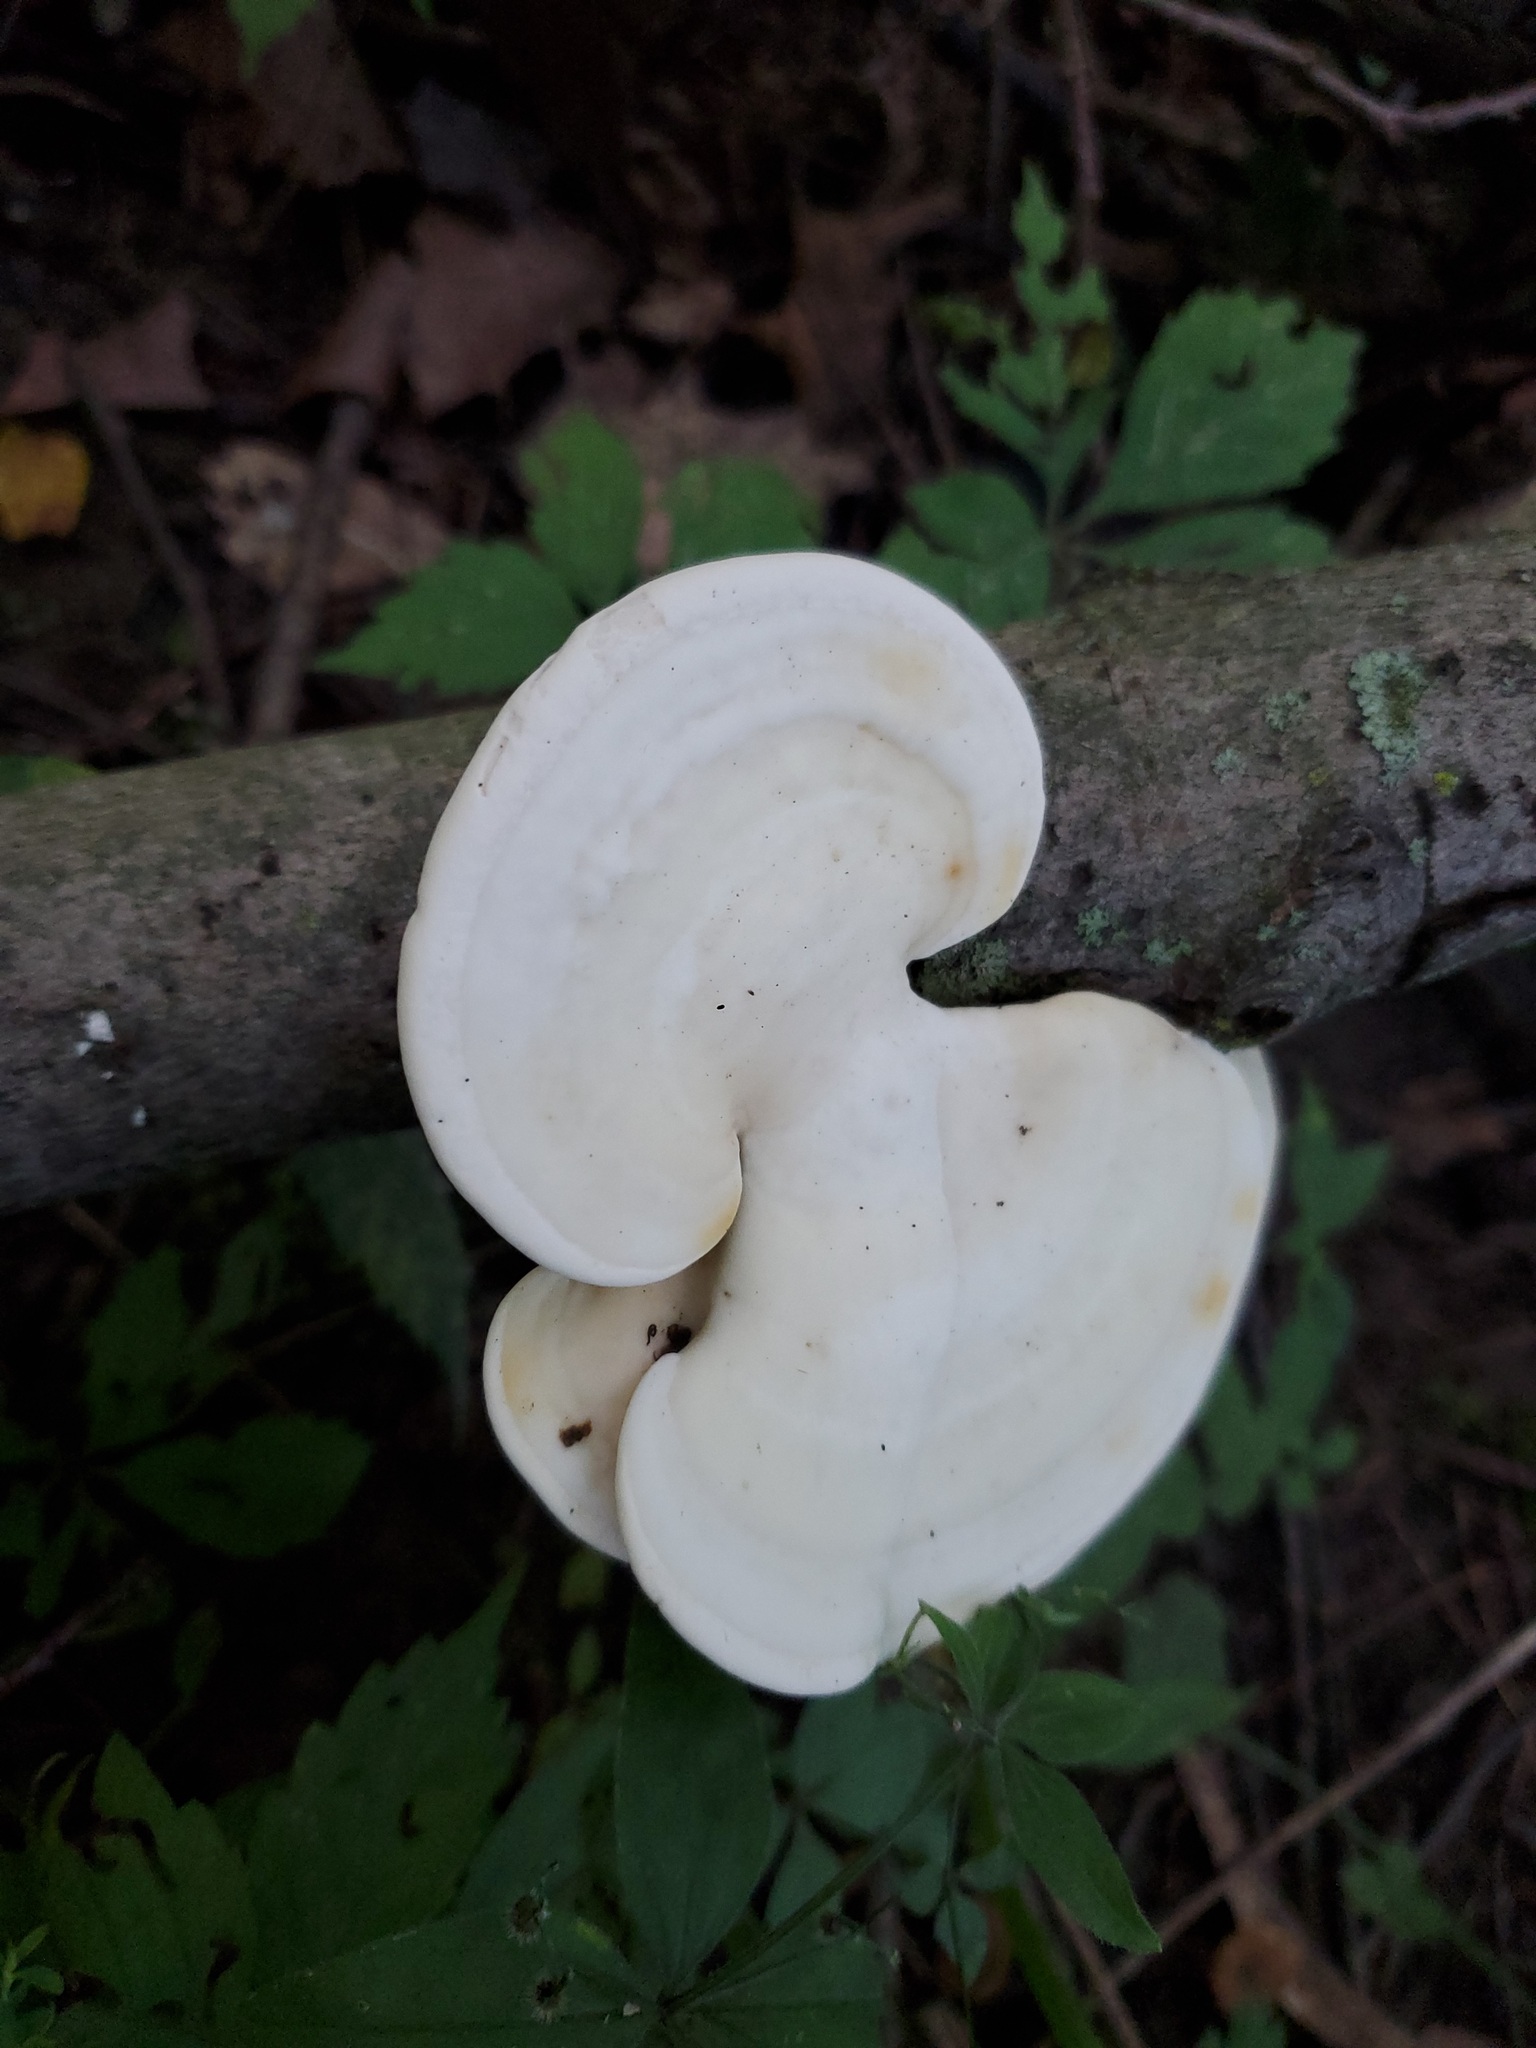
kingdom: Fungi
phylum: Basidiomycota
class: Agaricomycetes
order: Polyporales
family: Polyporaceae
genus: Trametes
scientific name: Trametes
